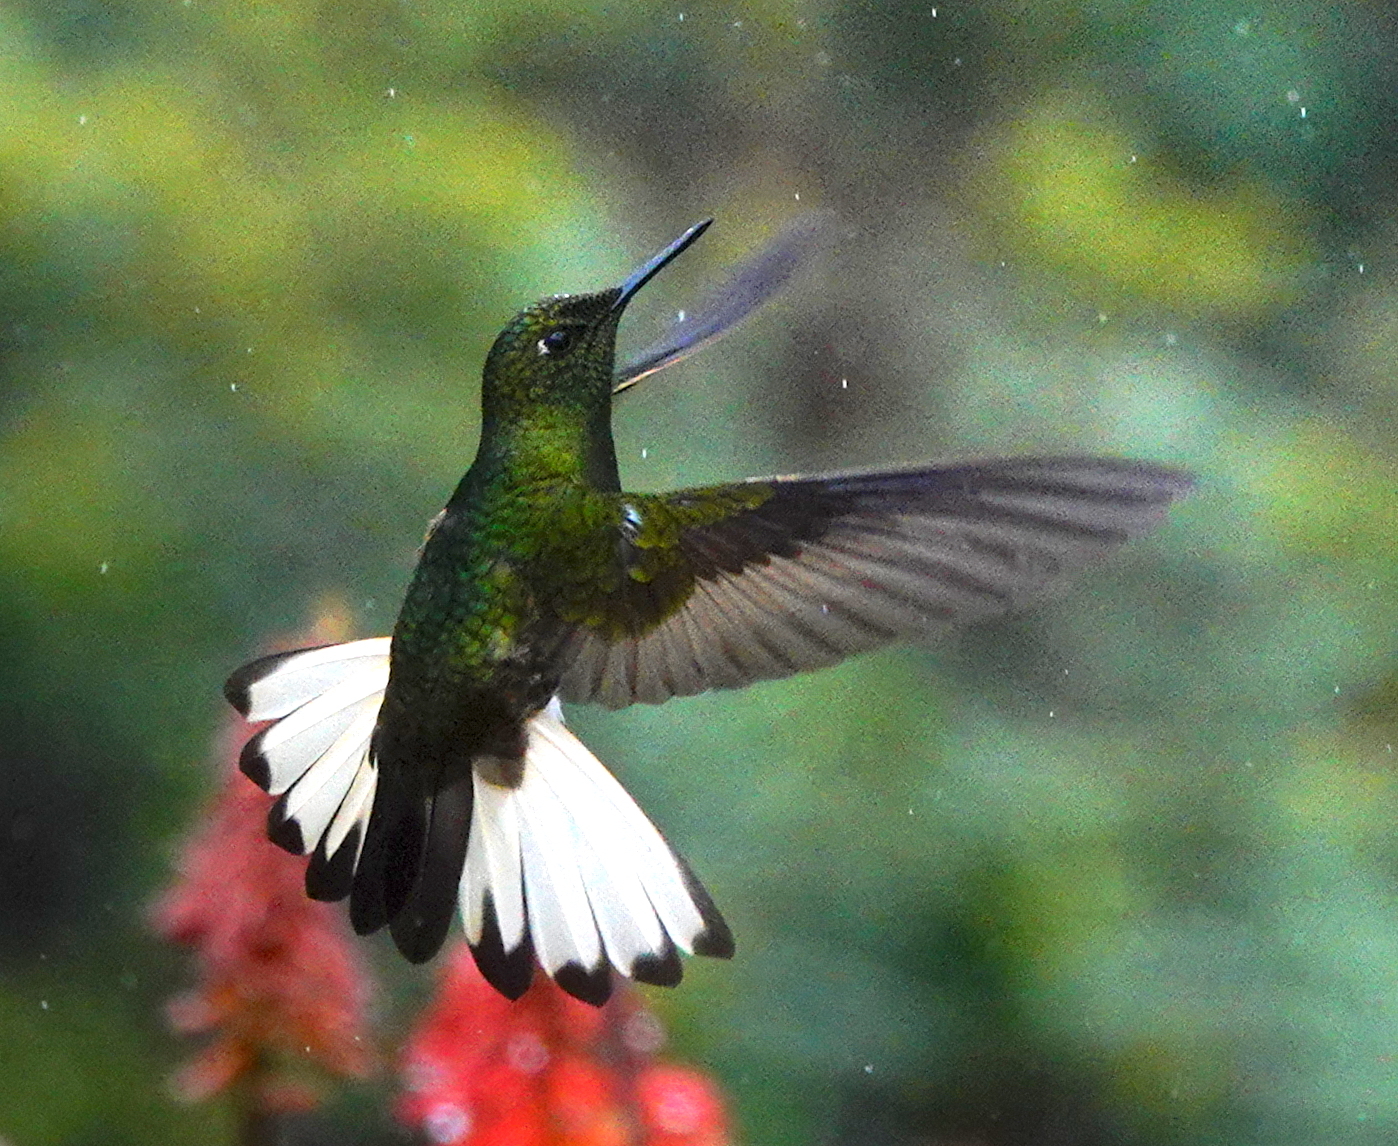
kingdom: Animalia
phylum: Chordata
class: Aves
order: Apodiformes
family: Trochilidae
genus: Boissonneaua
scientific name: Boissonneaua flavescens
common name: Buff-tailed coronet
